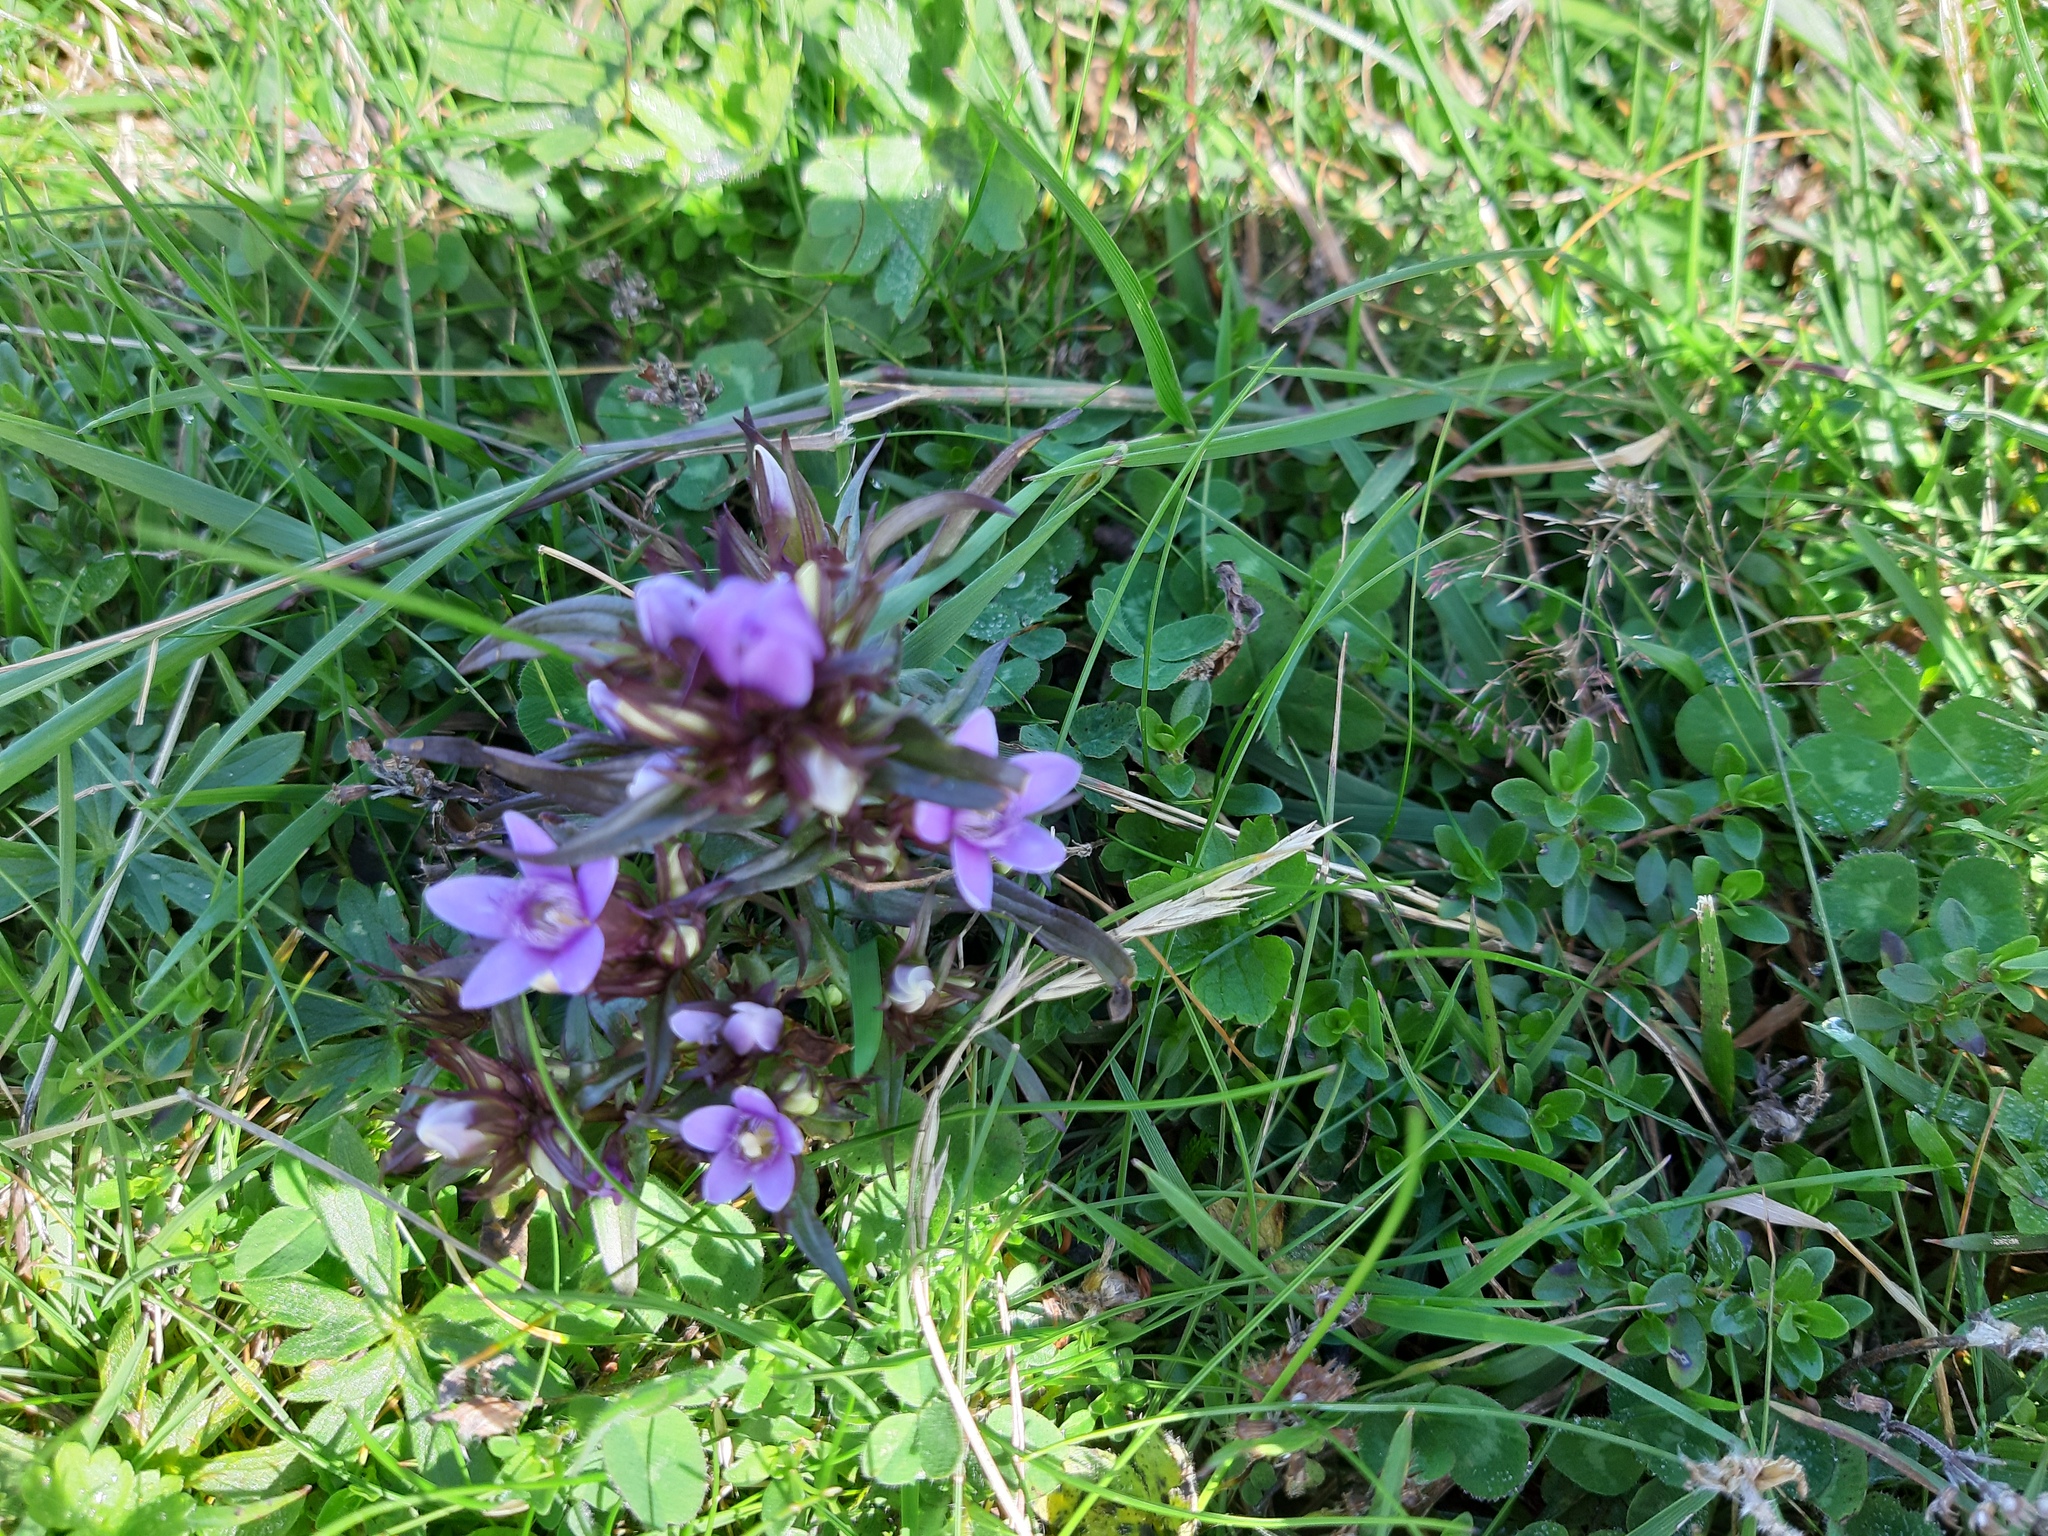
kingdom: Plantae
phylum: Tracheophyta
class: Magnoliopsida
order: Gentianales
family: Gentianaceae
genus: Gentianella
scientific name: Gentianella ramosa
